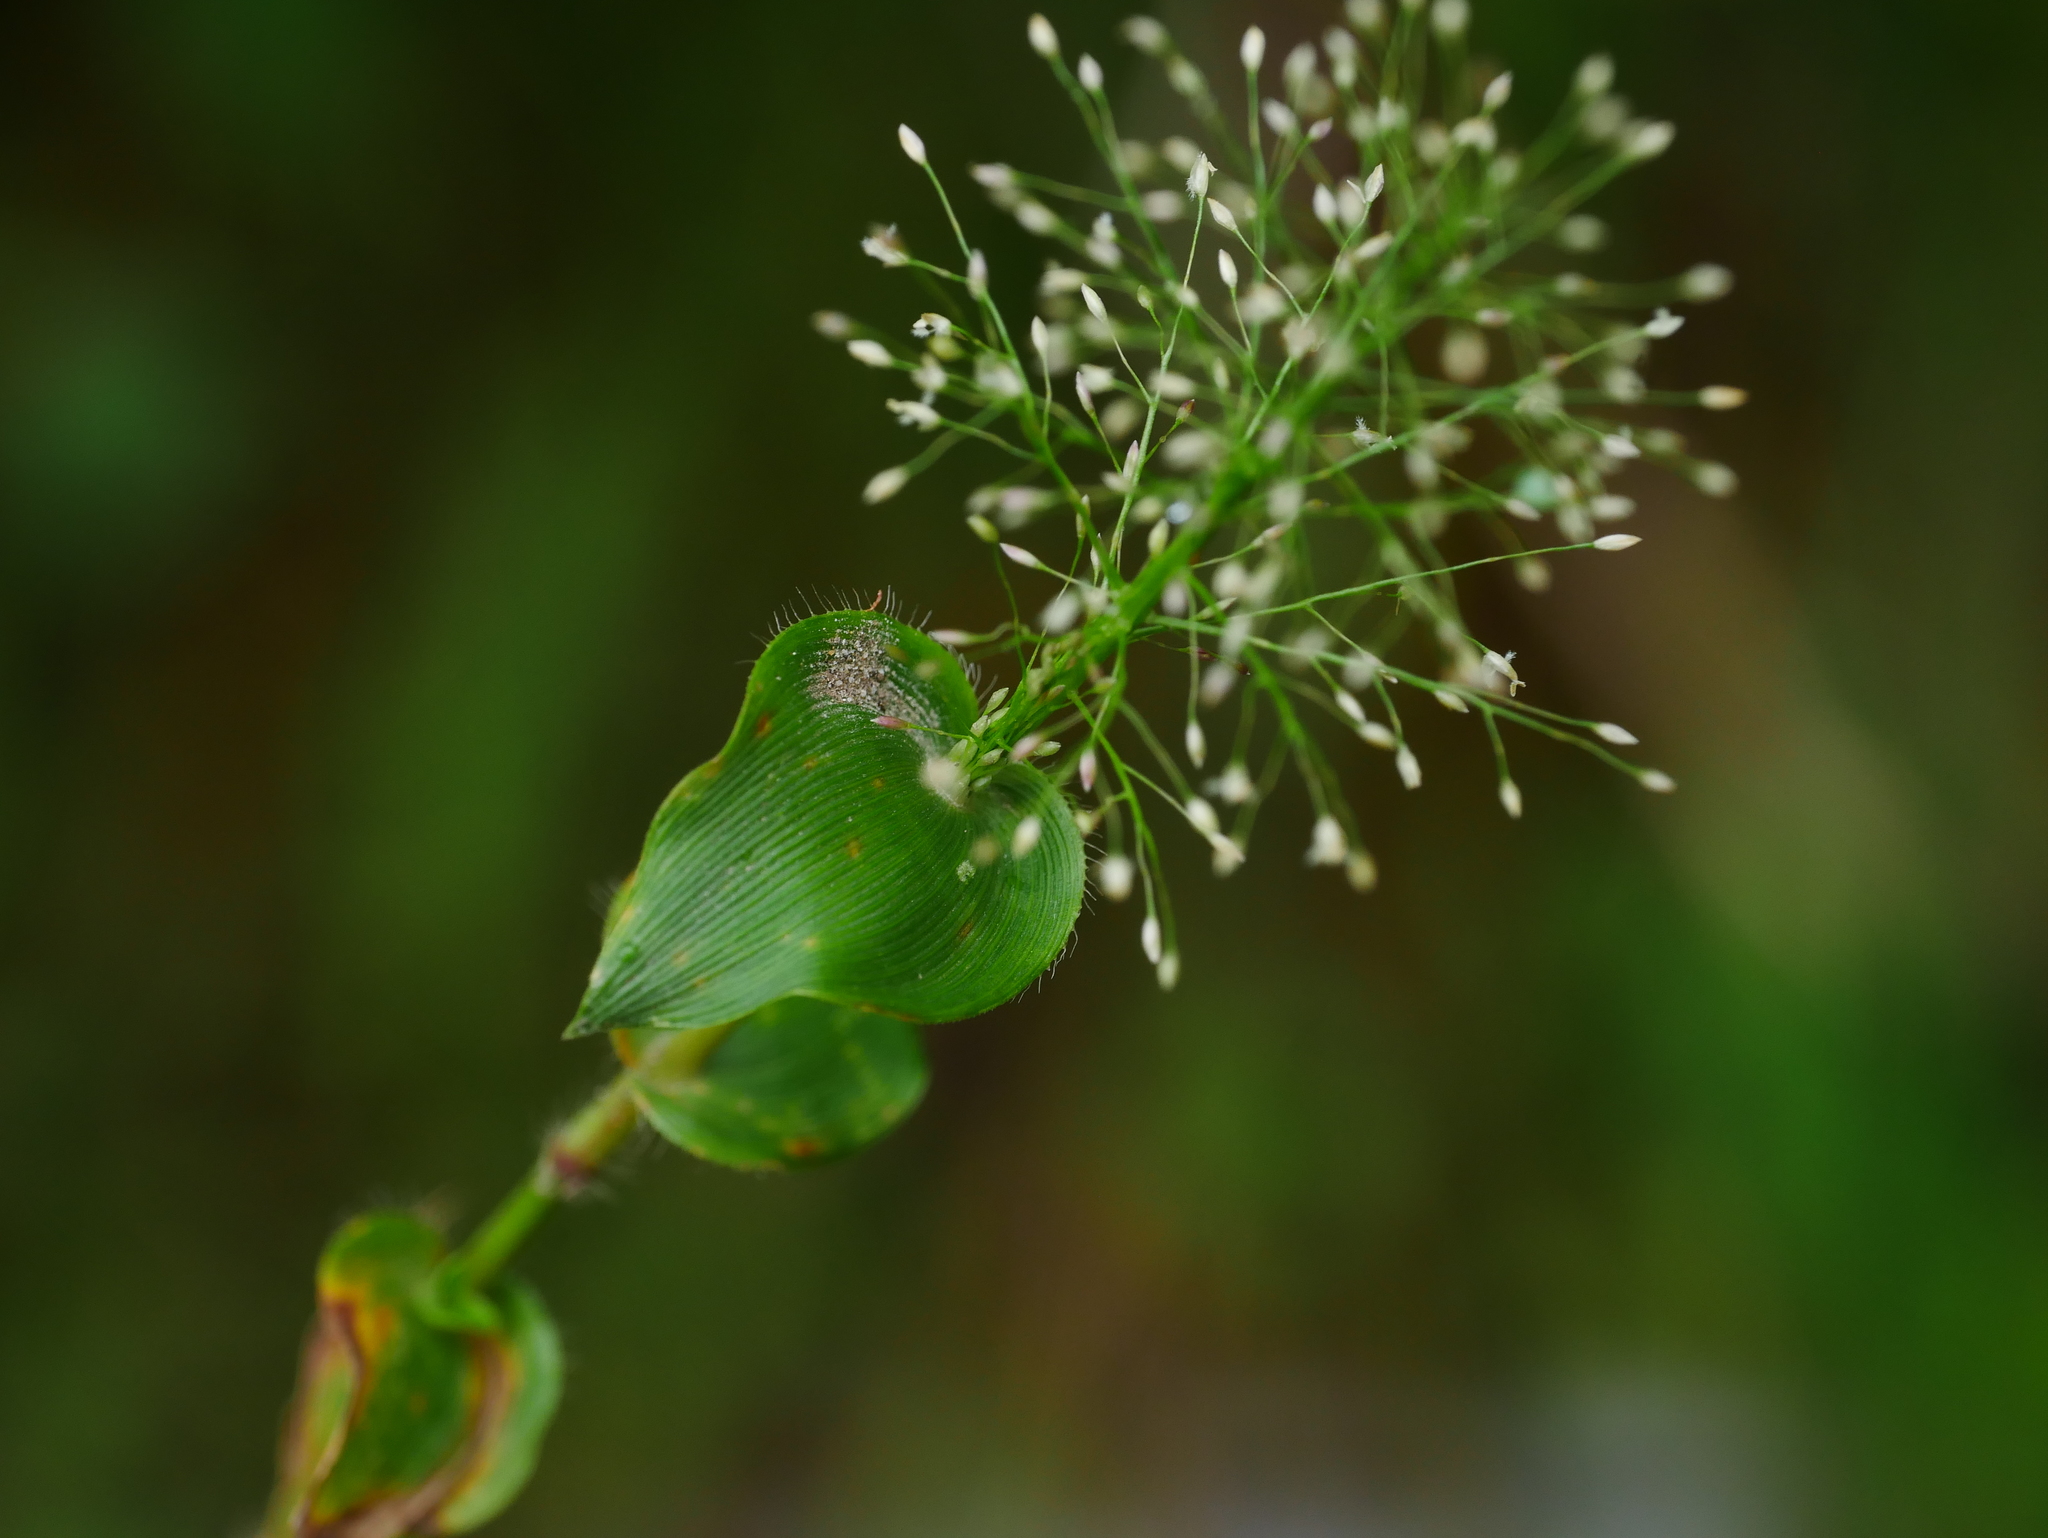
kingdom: Plantae
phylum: Tracheophyta
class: Liliopsida
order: Poales
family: Poaceae
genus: Sphaerocaryum
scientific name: Sphaerocaryum malaccense
